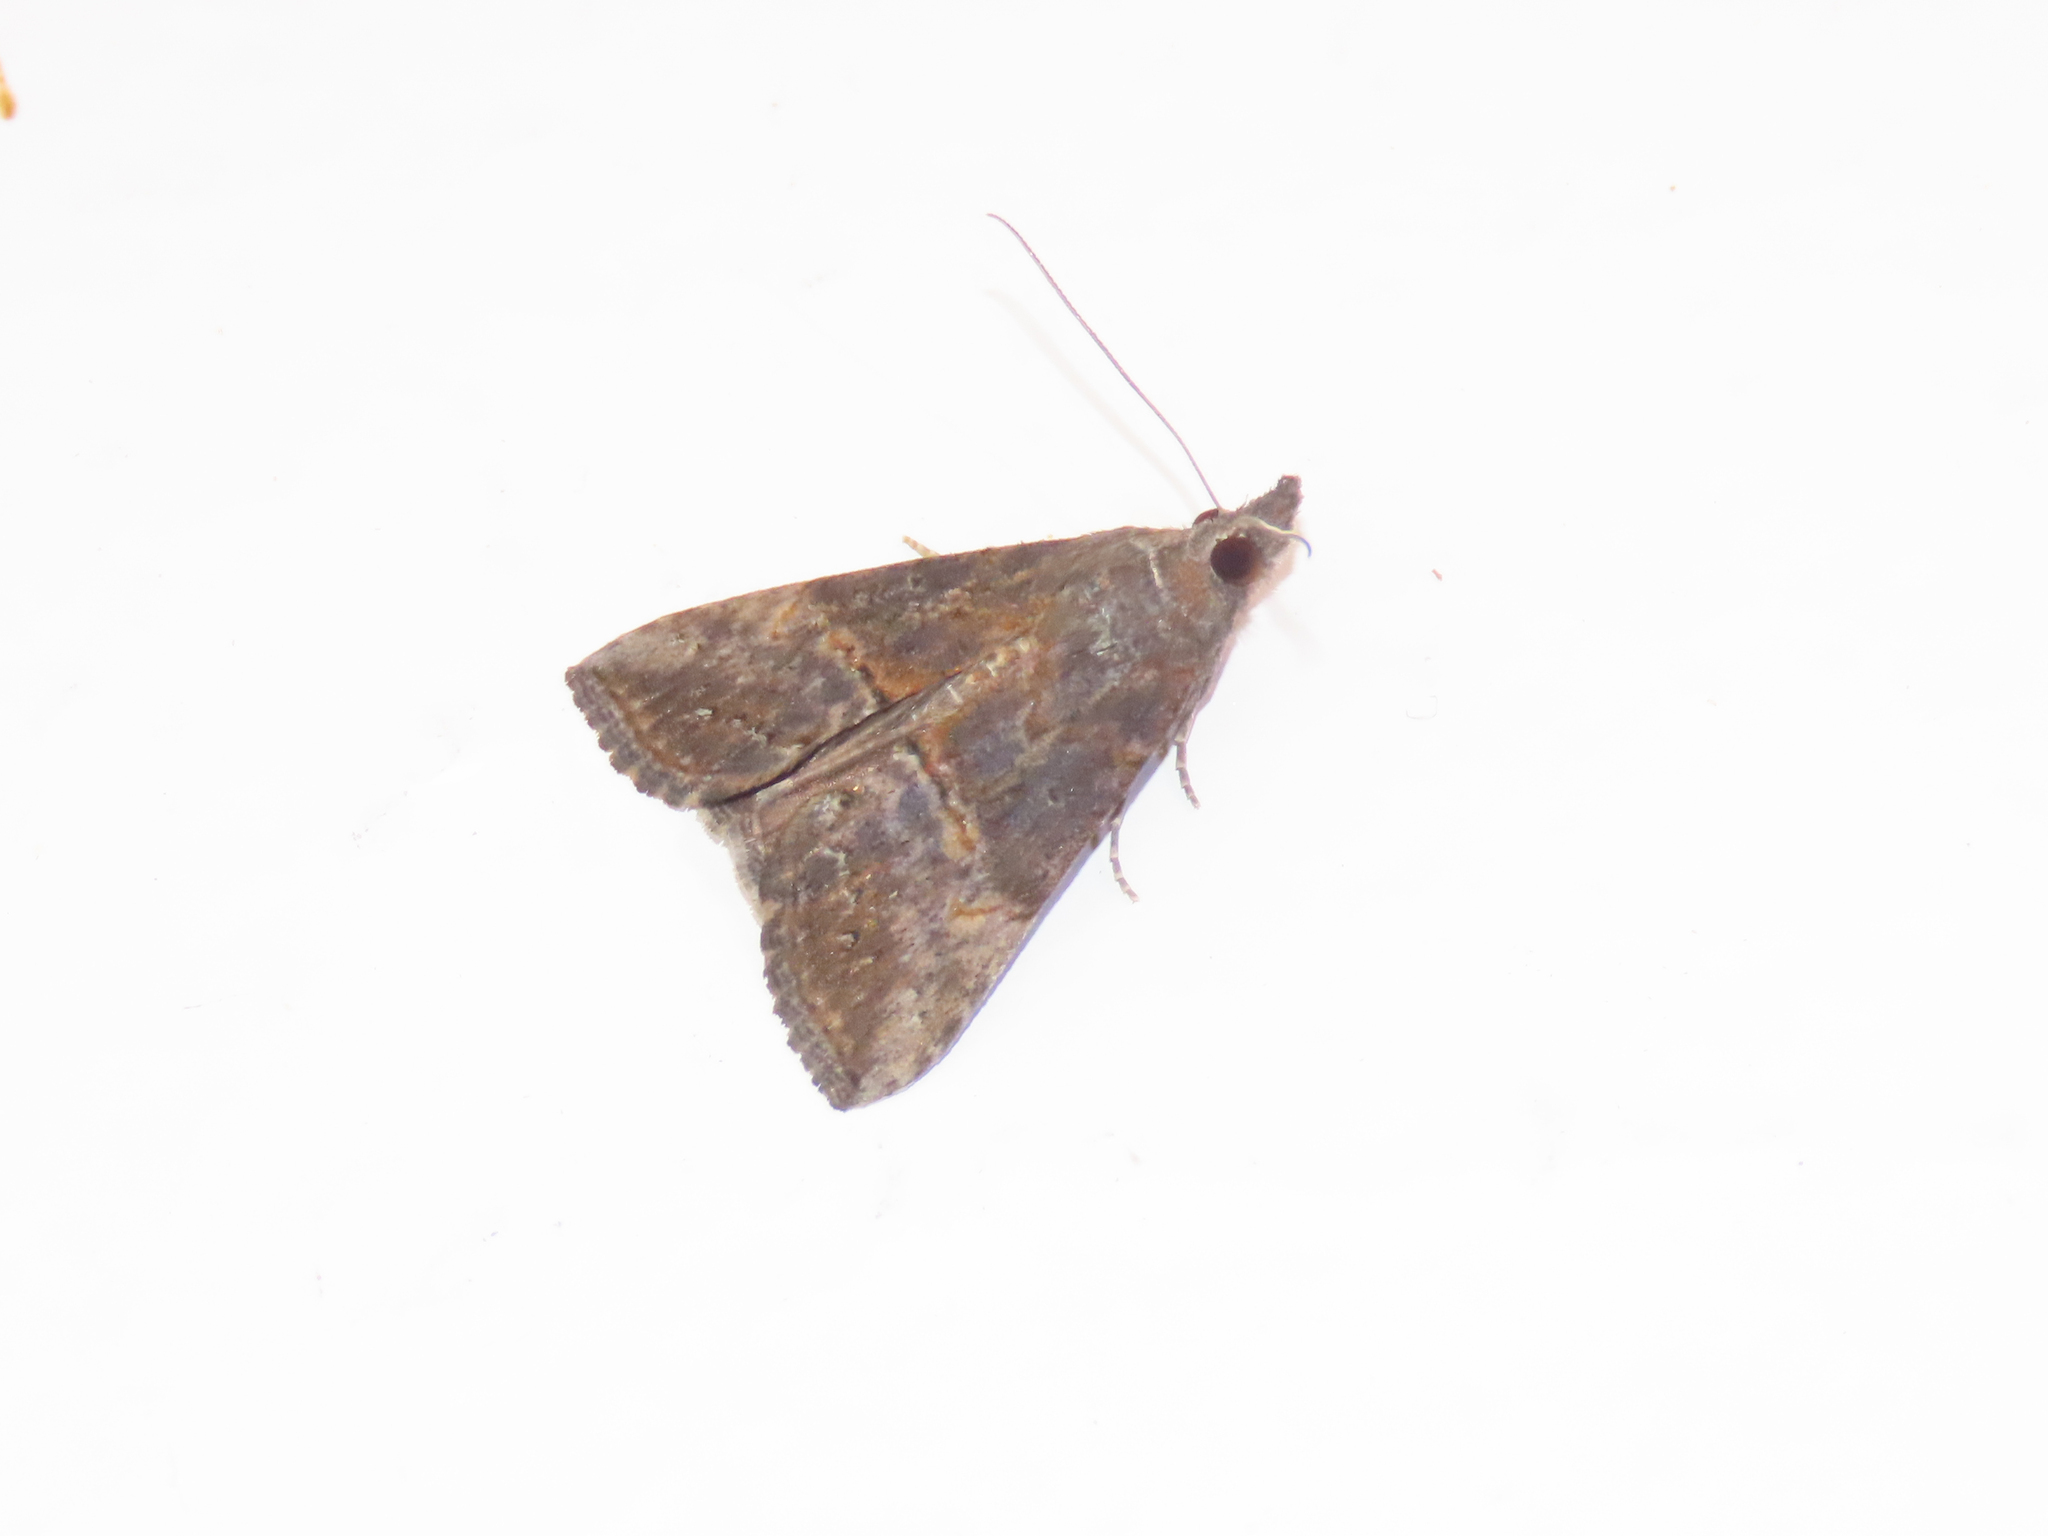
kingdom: Animalia
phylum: Arthropoda
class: Insecta
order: Lepidoptera
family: Erebidae
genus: Hypena
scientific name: Hypena scabra
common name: Green cloverworm
